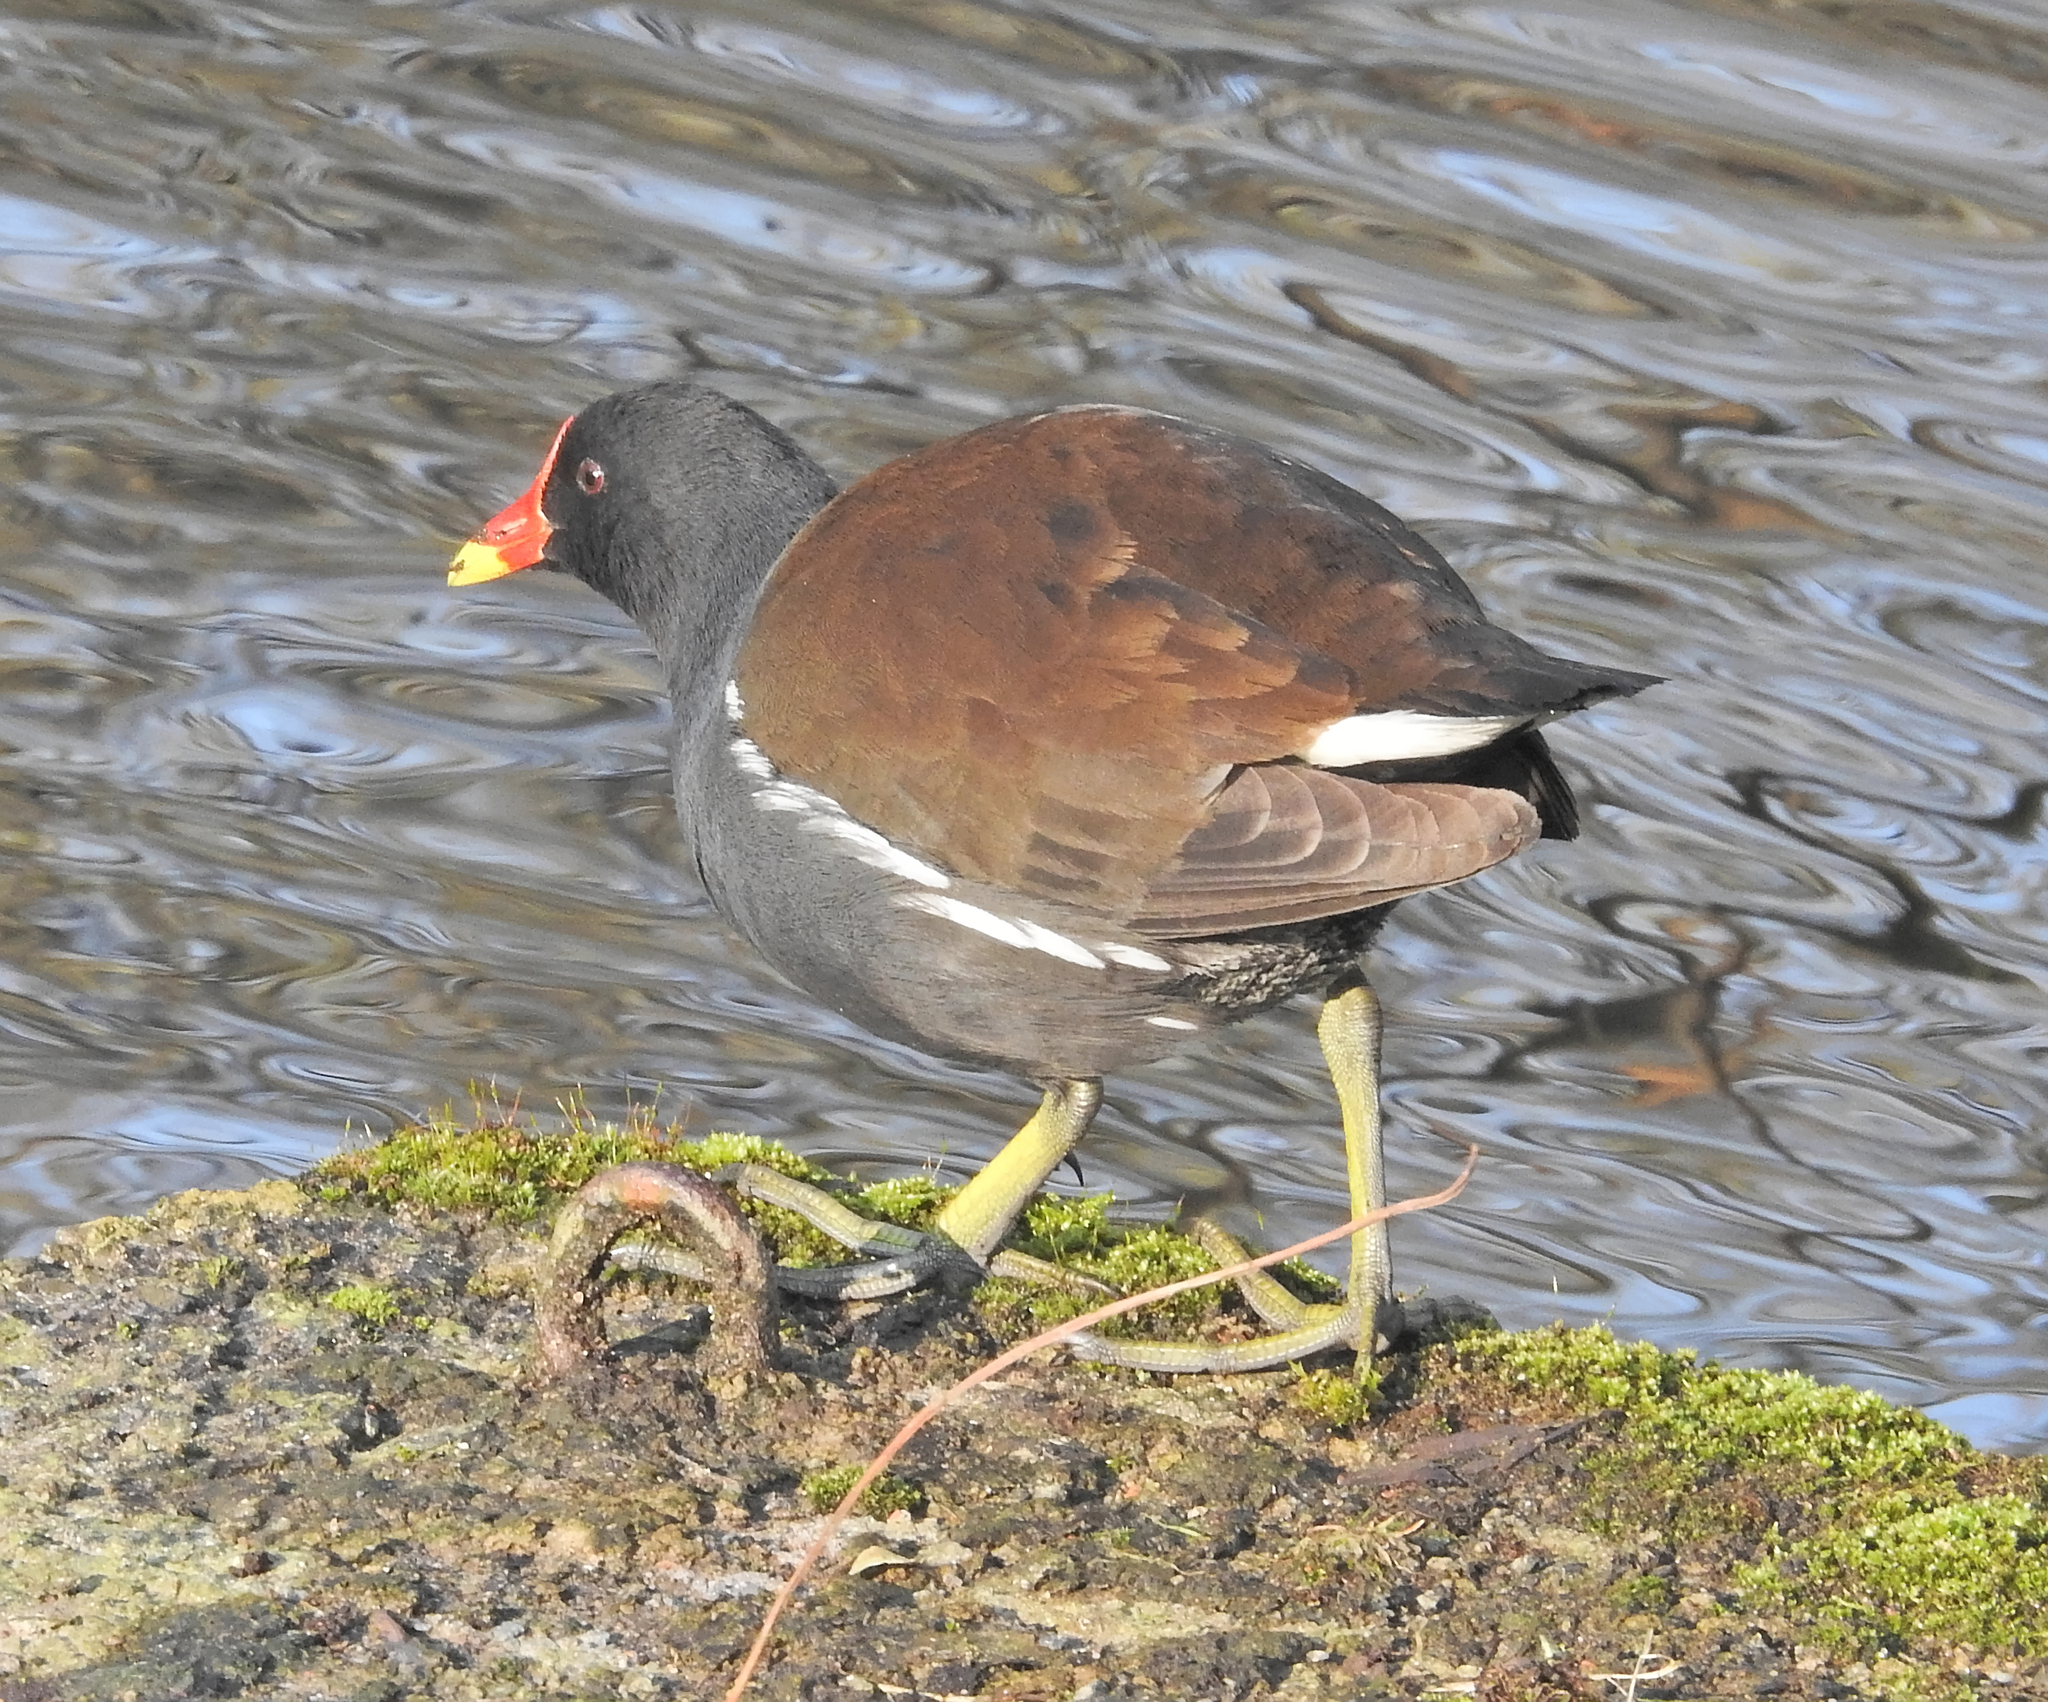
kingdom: Animalia
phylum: Chordata
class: Aves
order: Gruiformes
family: Rallidae
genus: Gallinula
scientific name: Gallinula chloropus
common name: Common moorhen
